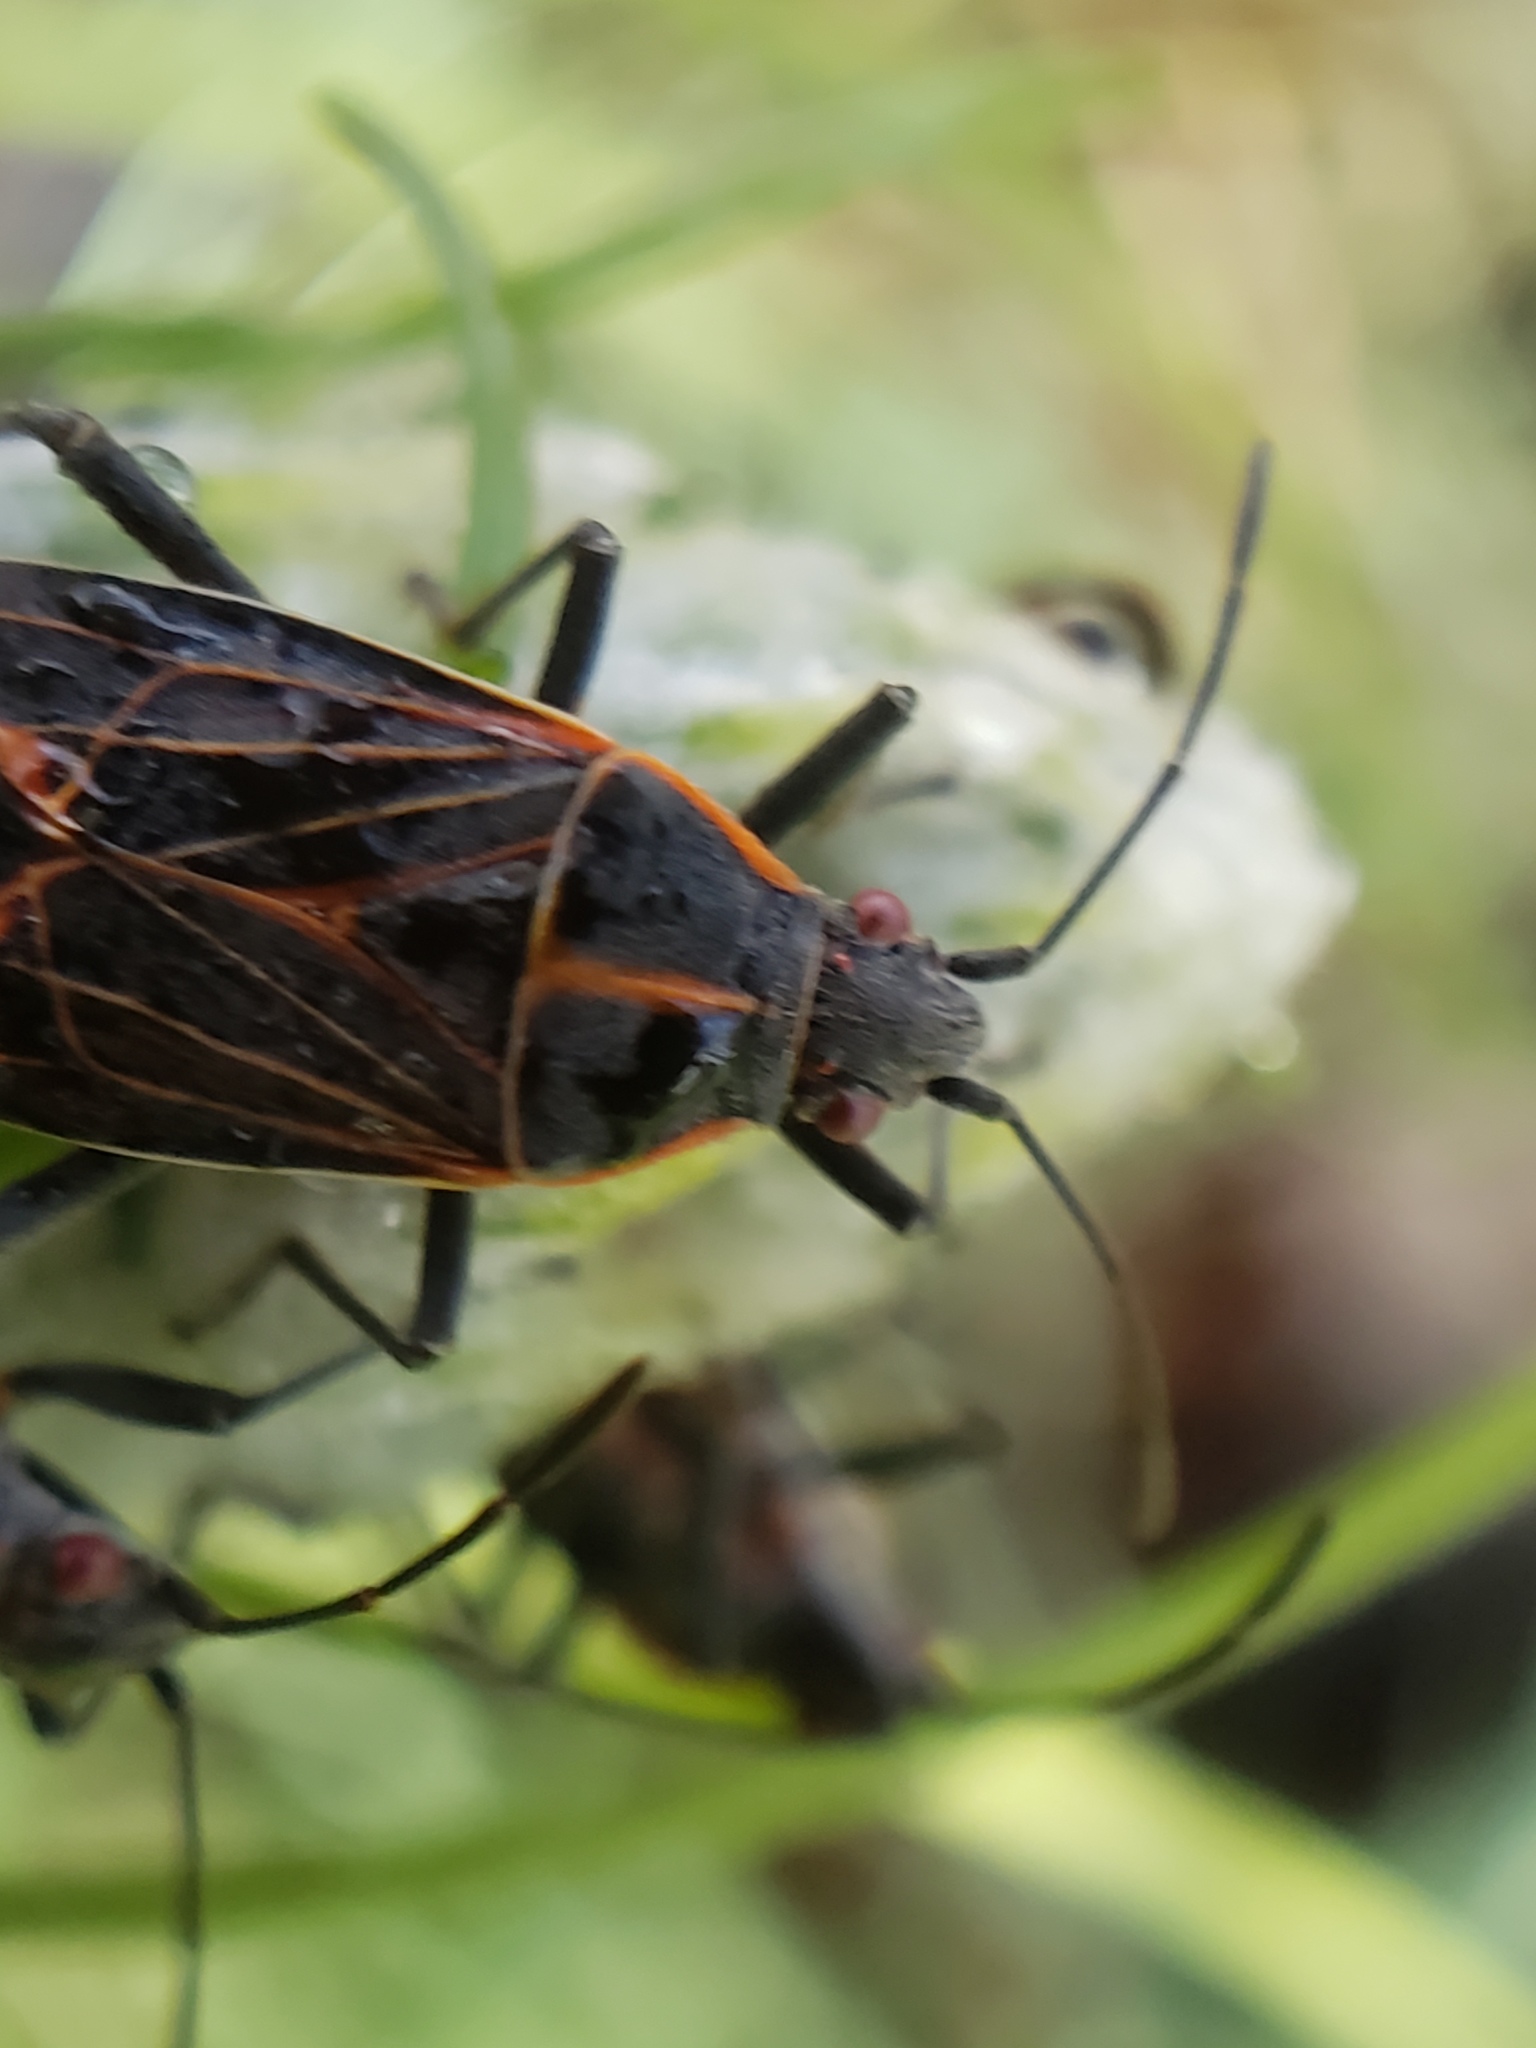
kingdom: Animalia
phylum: Arthropoda
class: Insecta
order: Hemiptera
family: Rhopalidae
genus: Boisea
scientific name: Boisea rubrolineata
